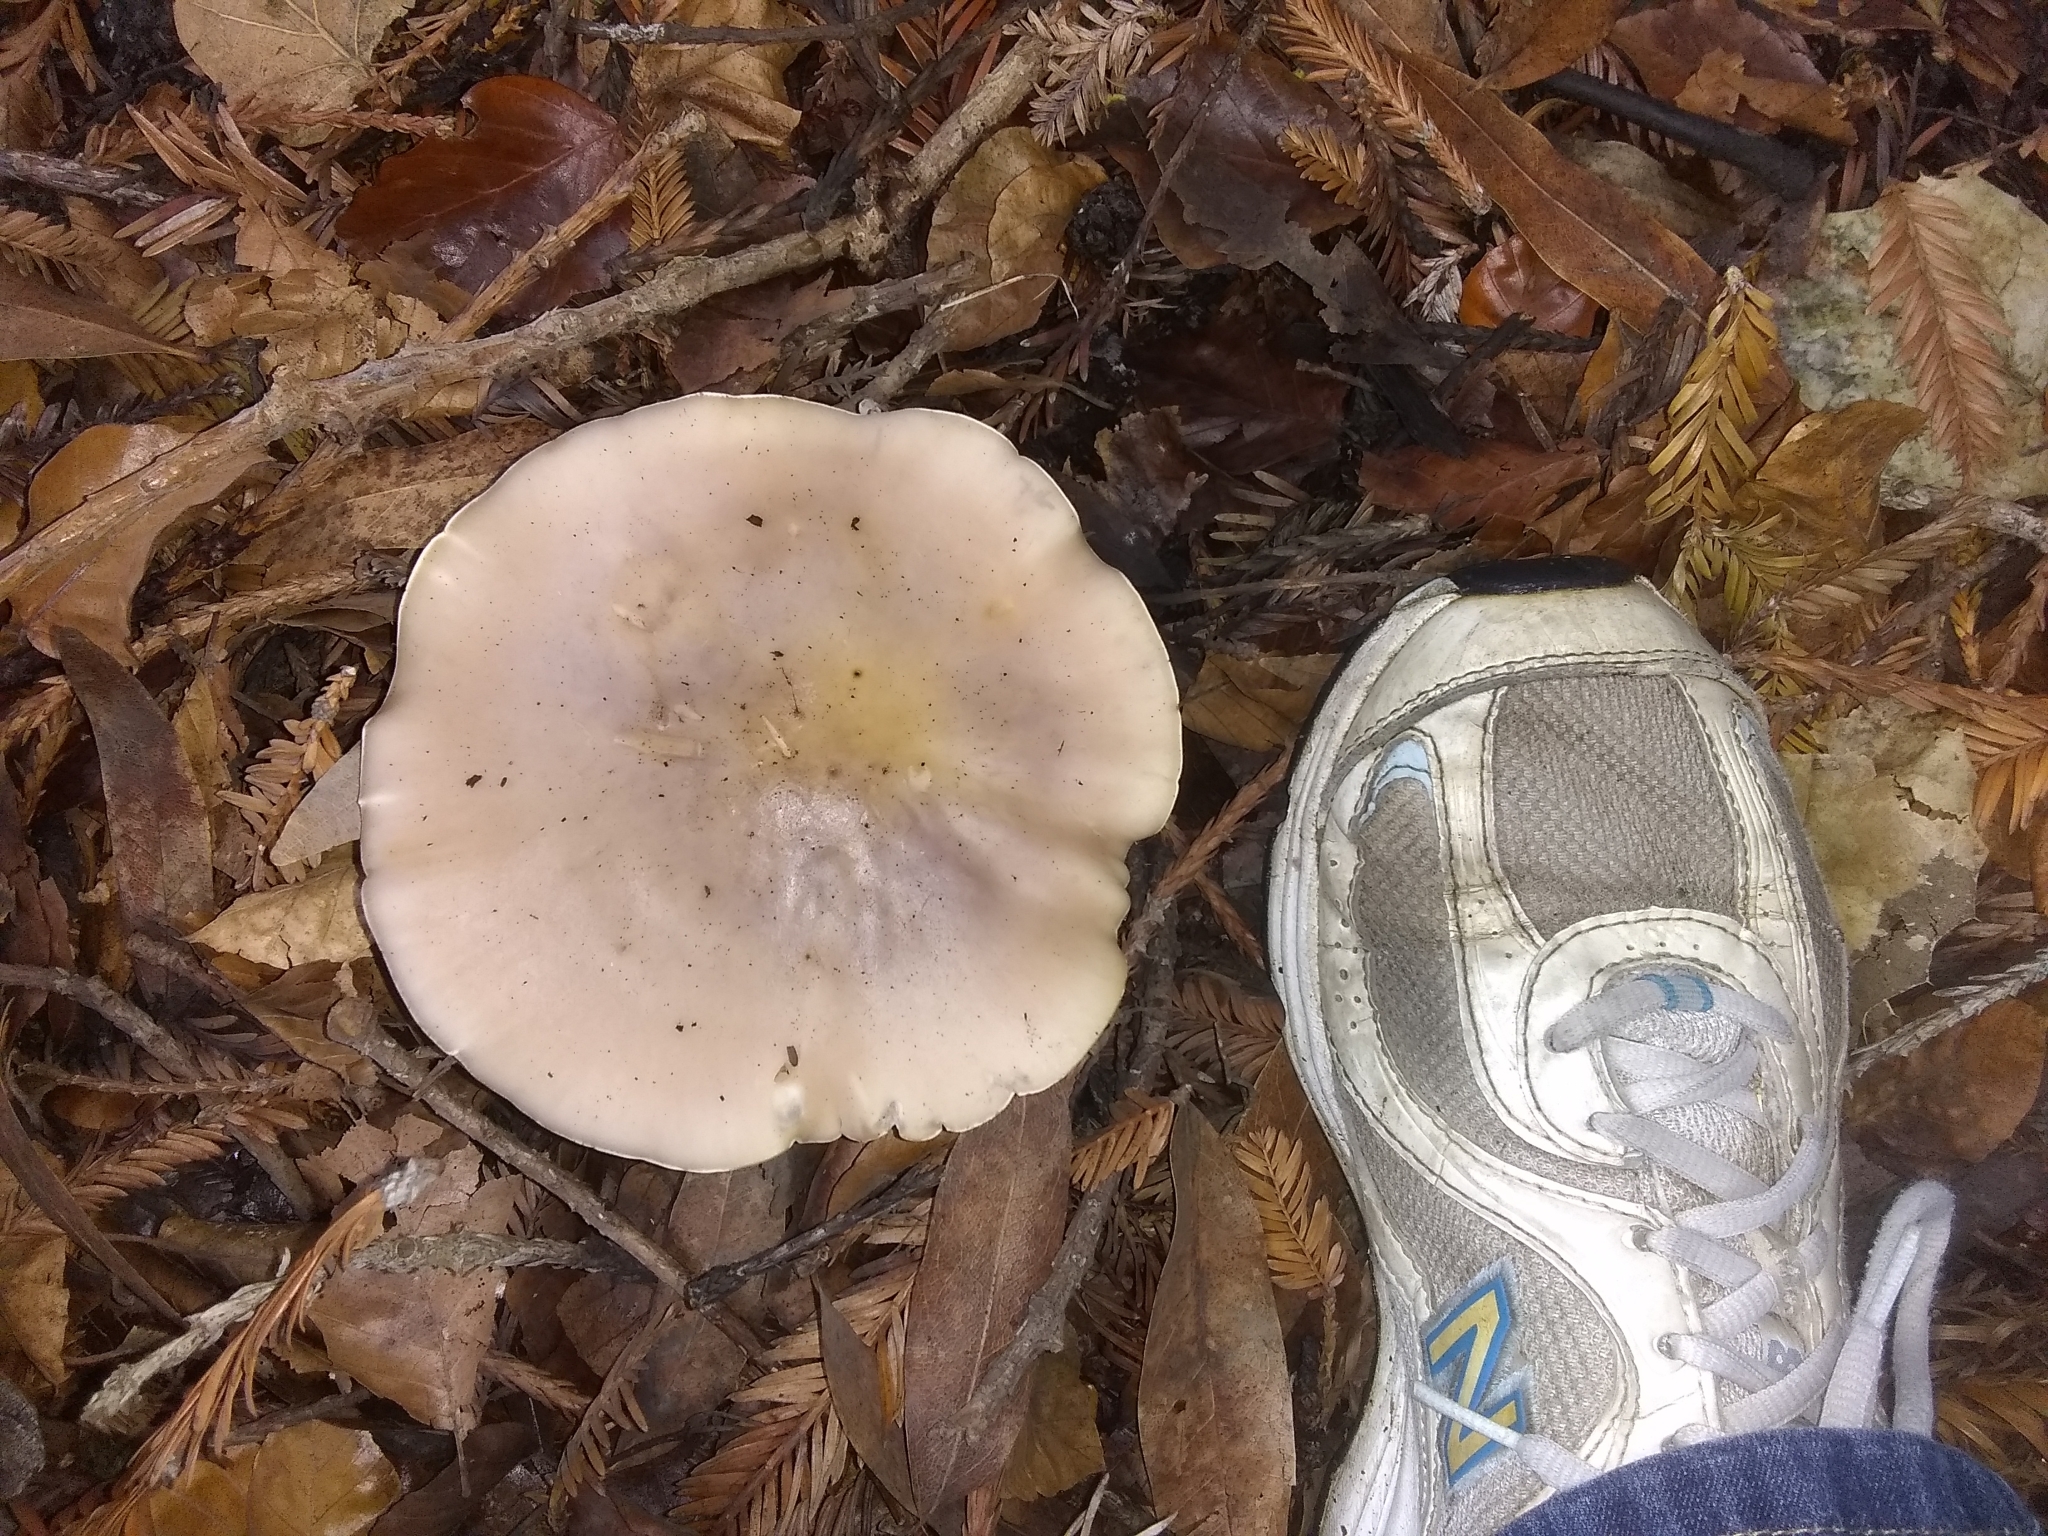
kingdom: Fungi
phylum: Basidiomycota
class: Agaricomycetes
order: Agaricales
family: Tricholomataceae
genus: Collybia
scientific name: Collybia
